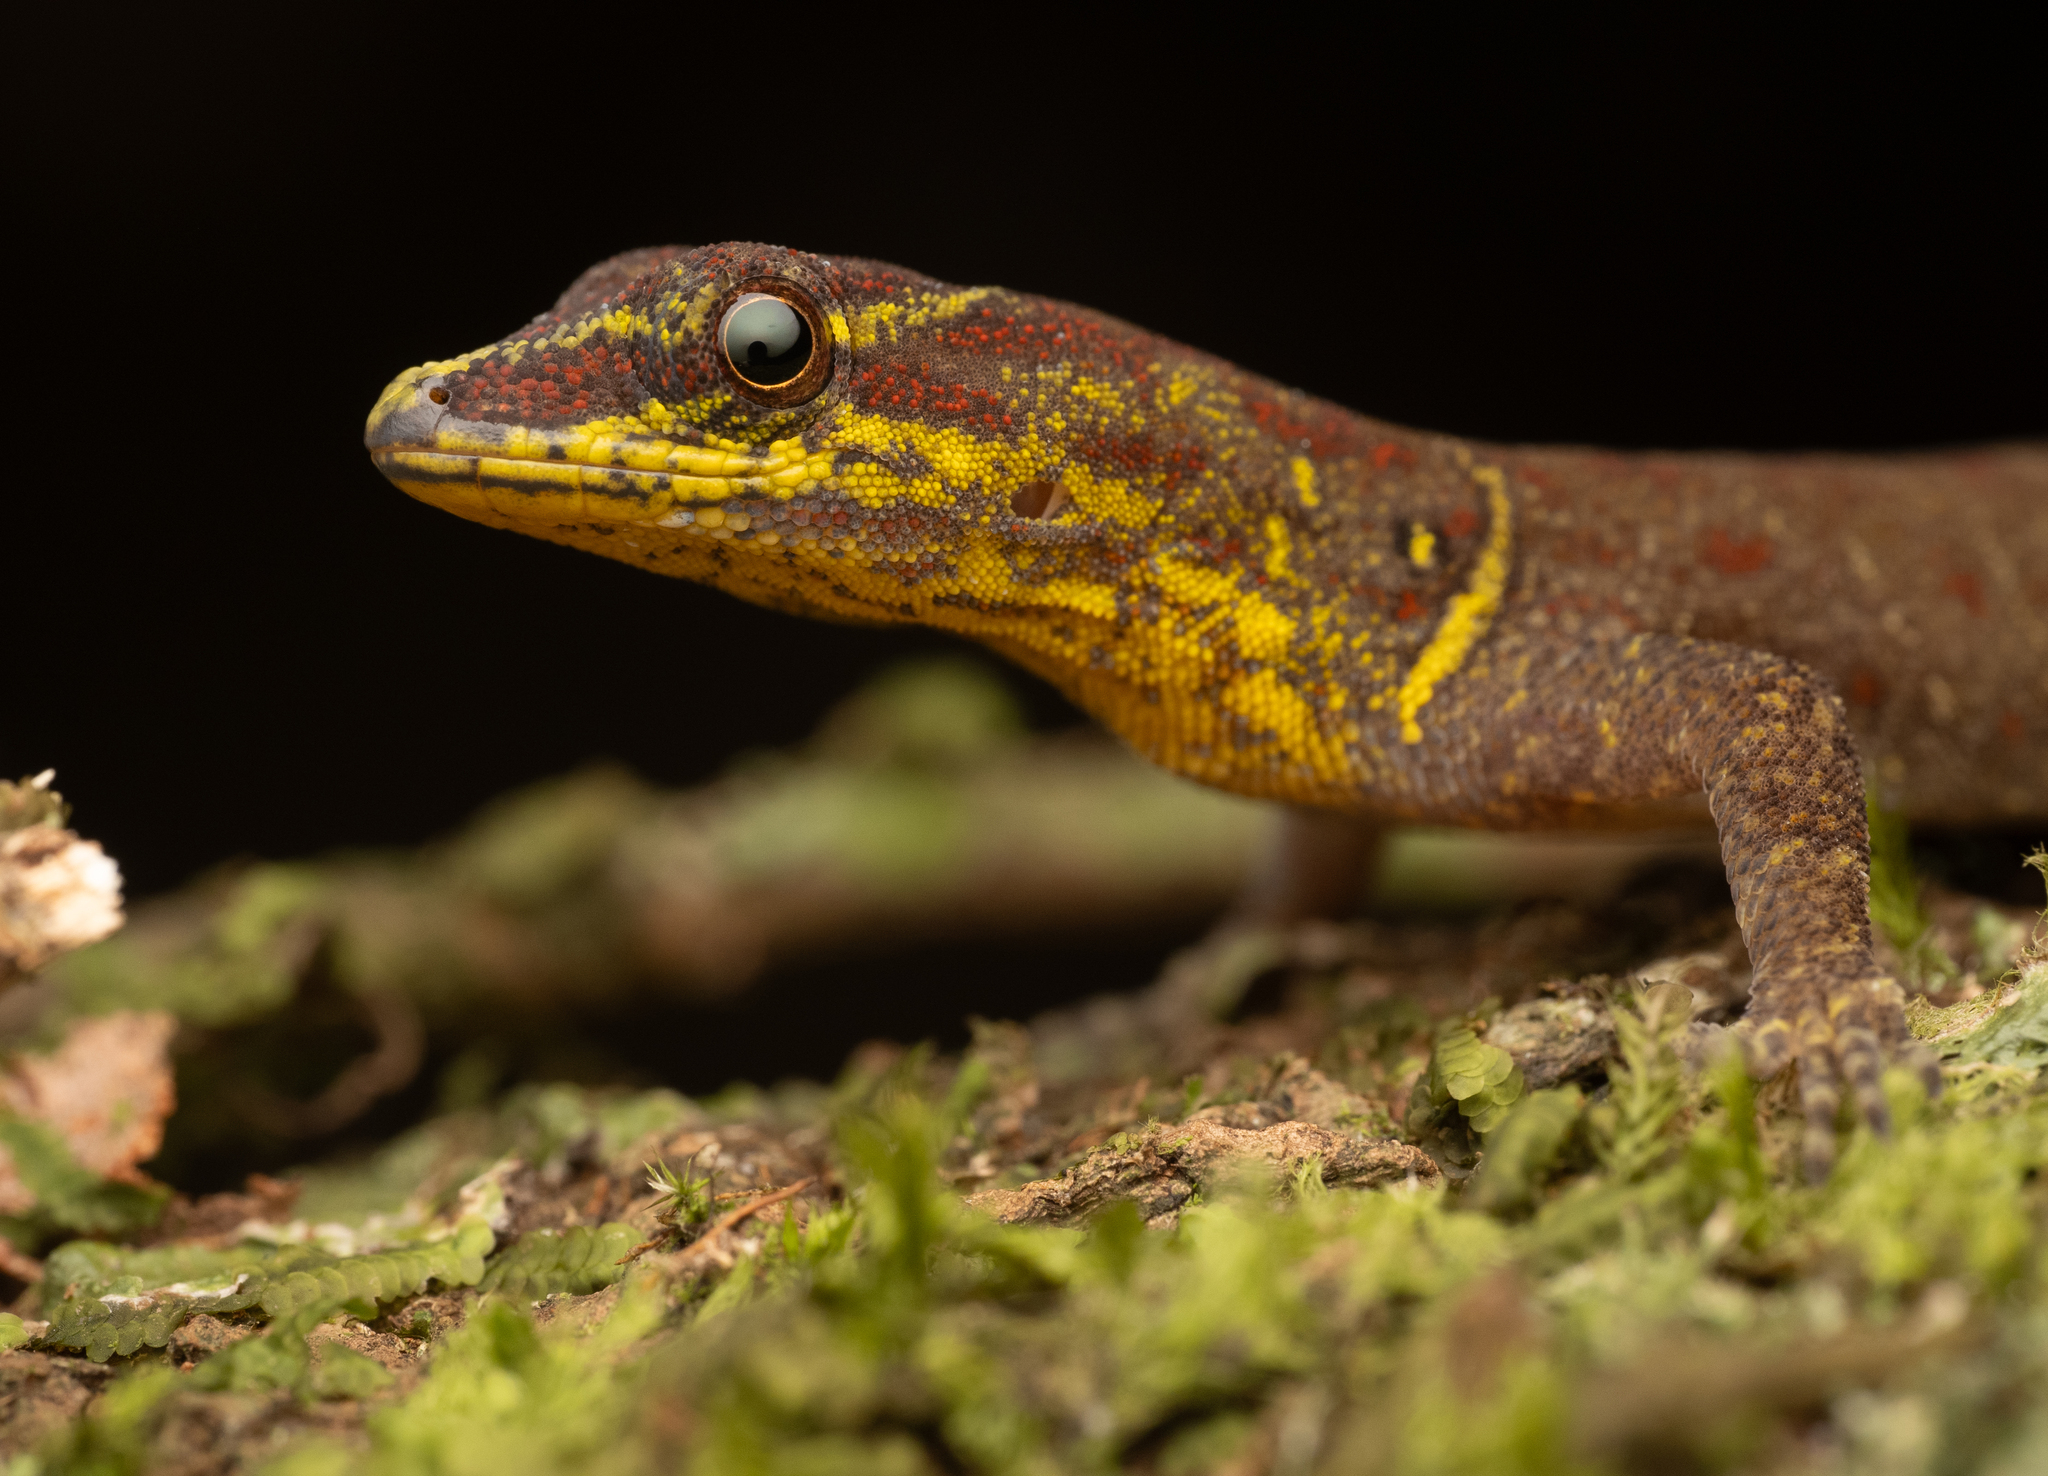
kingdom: Animalia
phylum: Chordata
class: Squamata
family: Sphaerodactylidae
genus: Gonatodes
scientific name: Gonatodes humeralis
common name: South american clawed gecko
